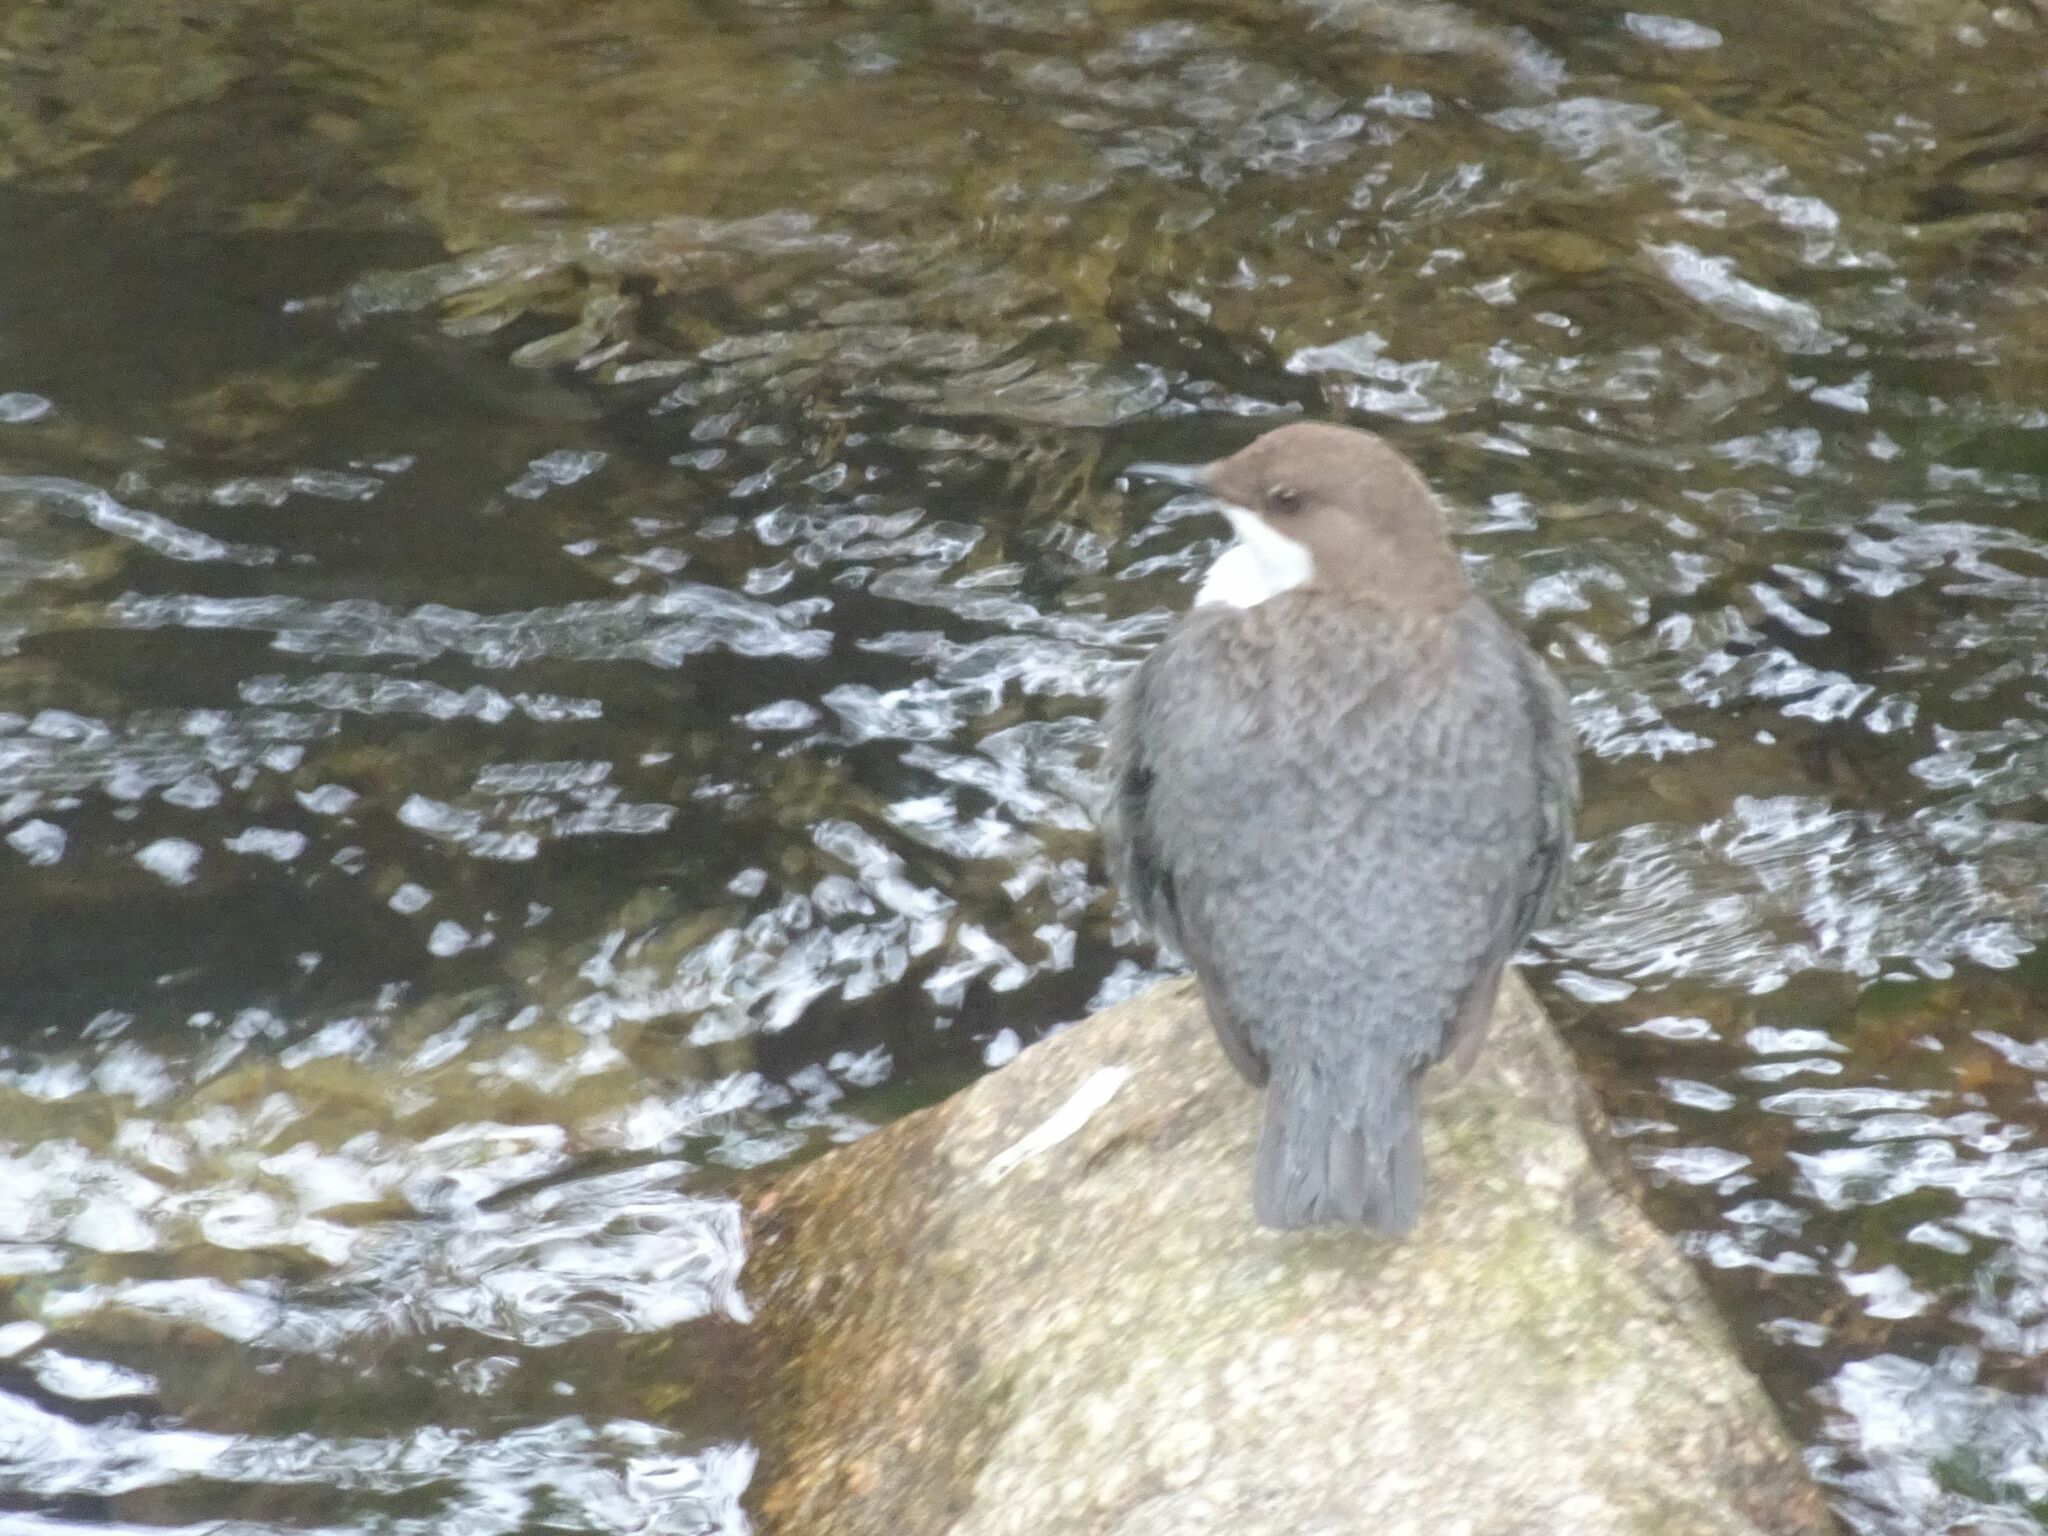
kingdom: Animalia
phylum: Chordata
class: Aves
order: Passeriformes
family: Cinclidae
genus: Cinclus
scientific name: Cinclus cinclus
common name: White-throated dipper
